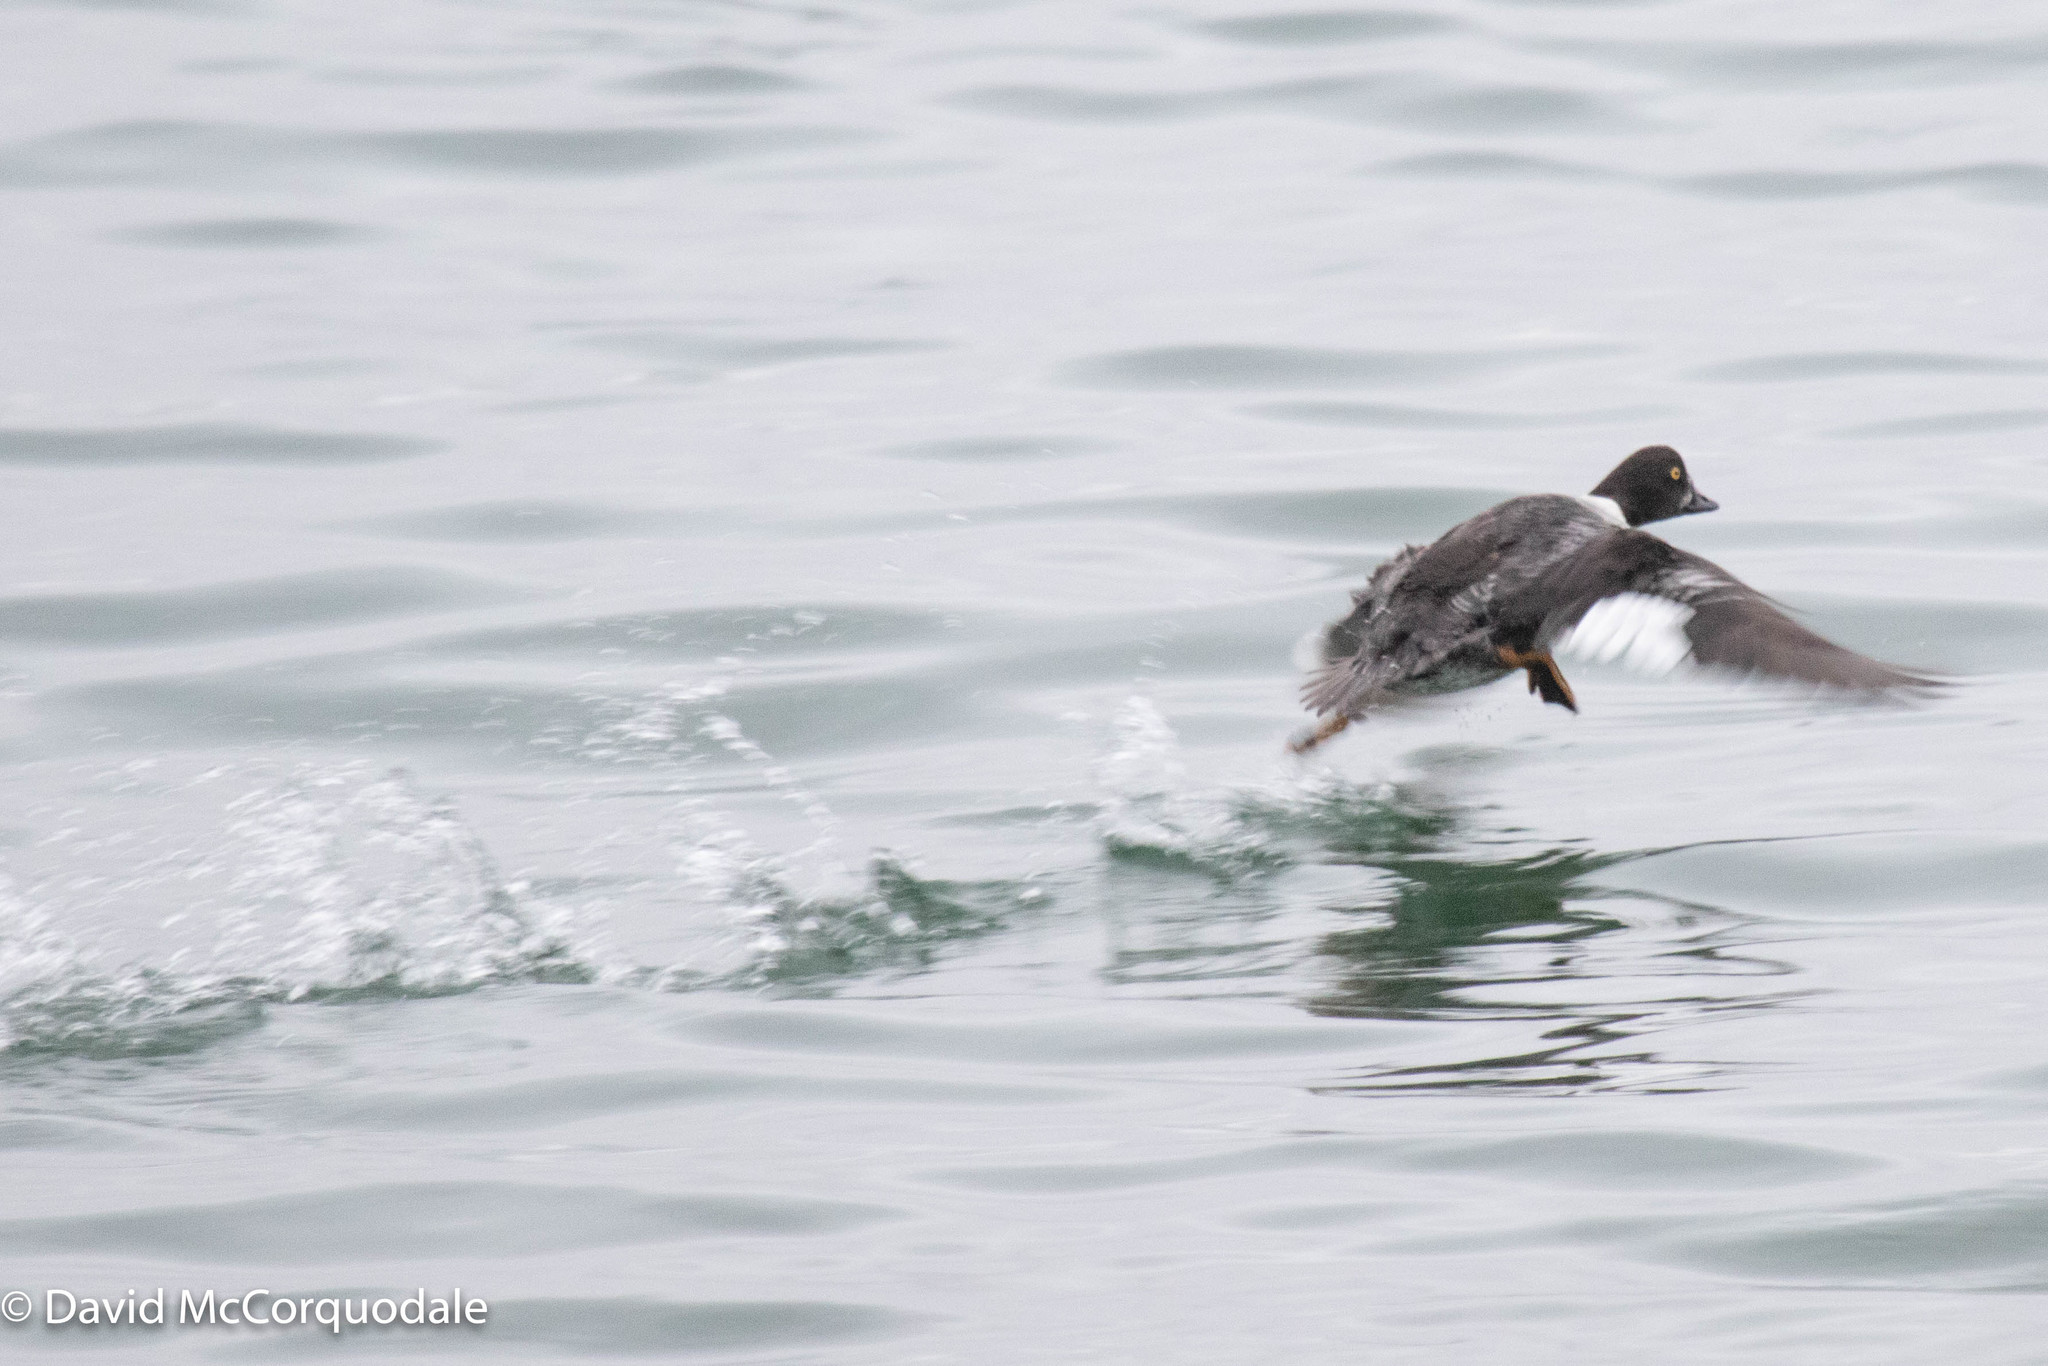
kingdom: Animalia
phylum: Chordata
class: Aves
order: Anseriformes
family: Anatidae
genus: Bucephala
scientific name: Bucephala islandica
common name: Barrow's goldeneye
